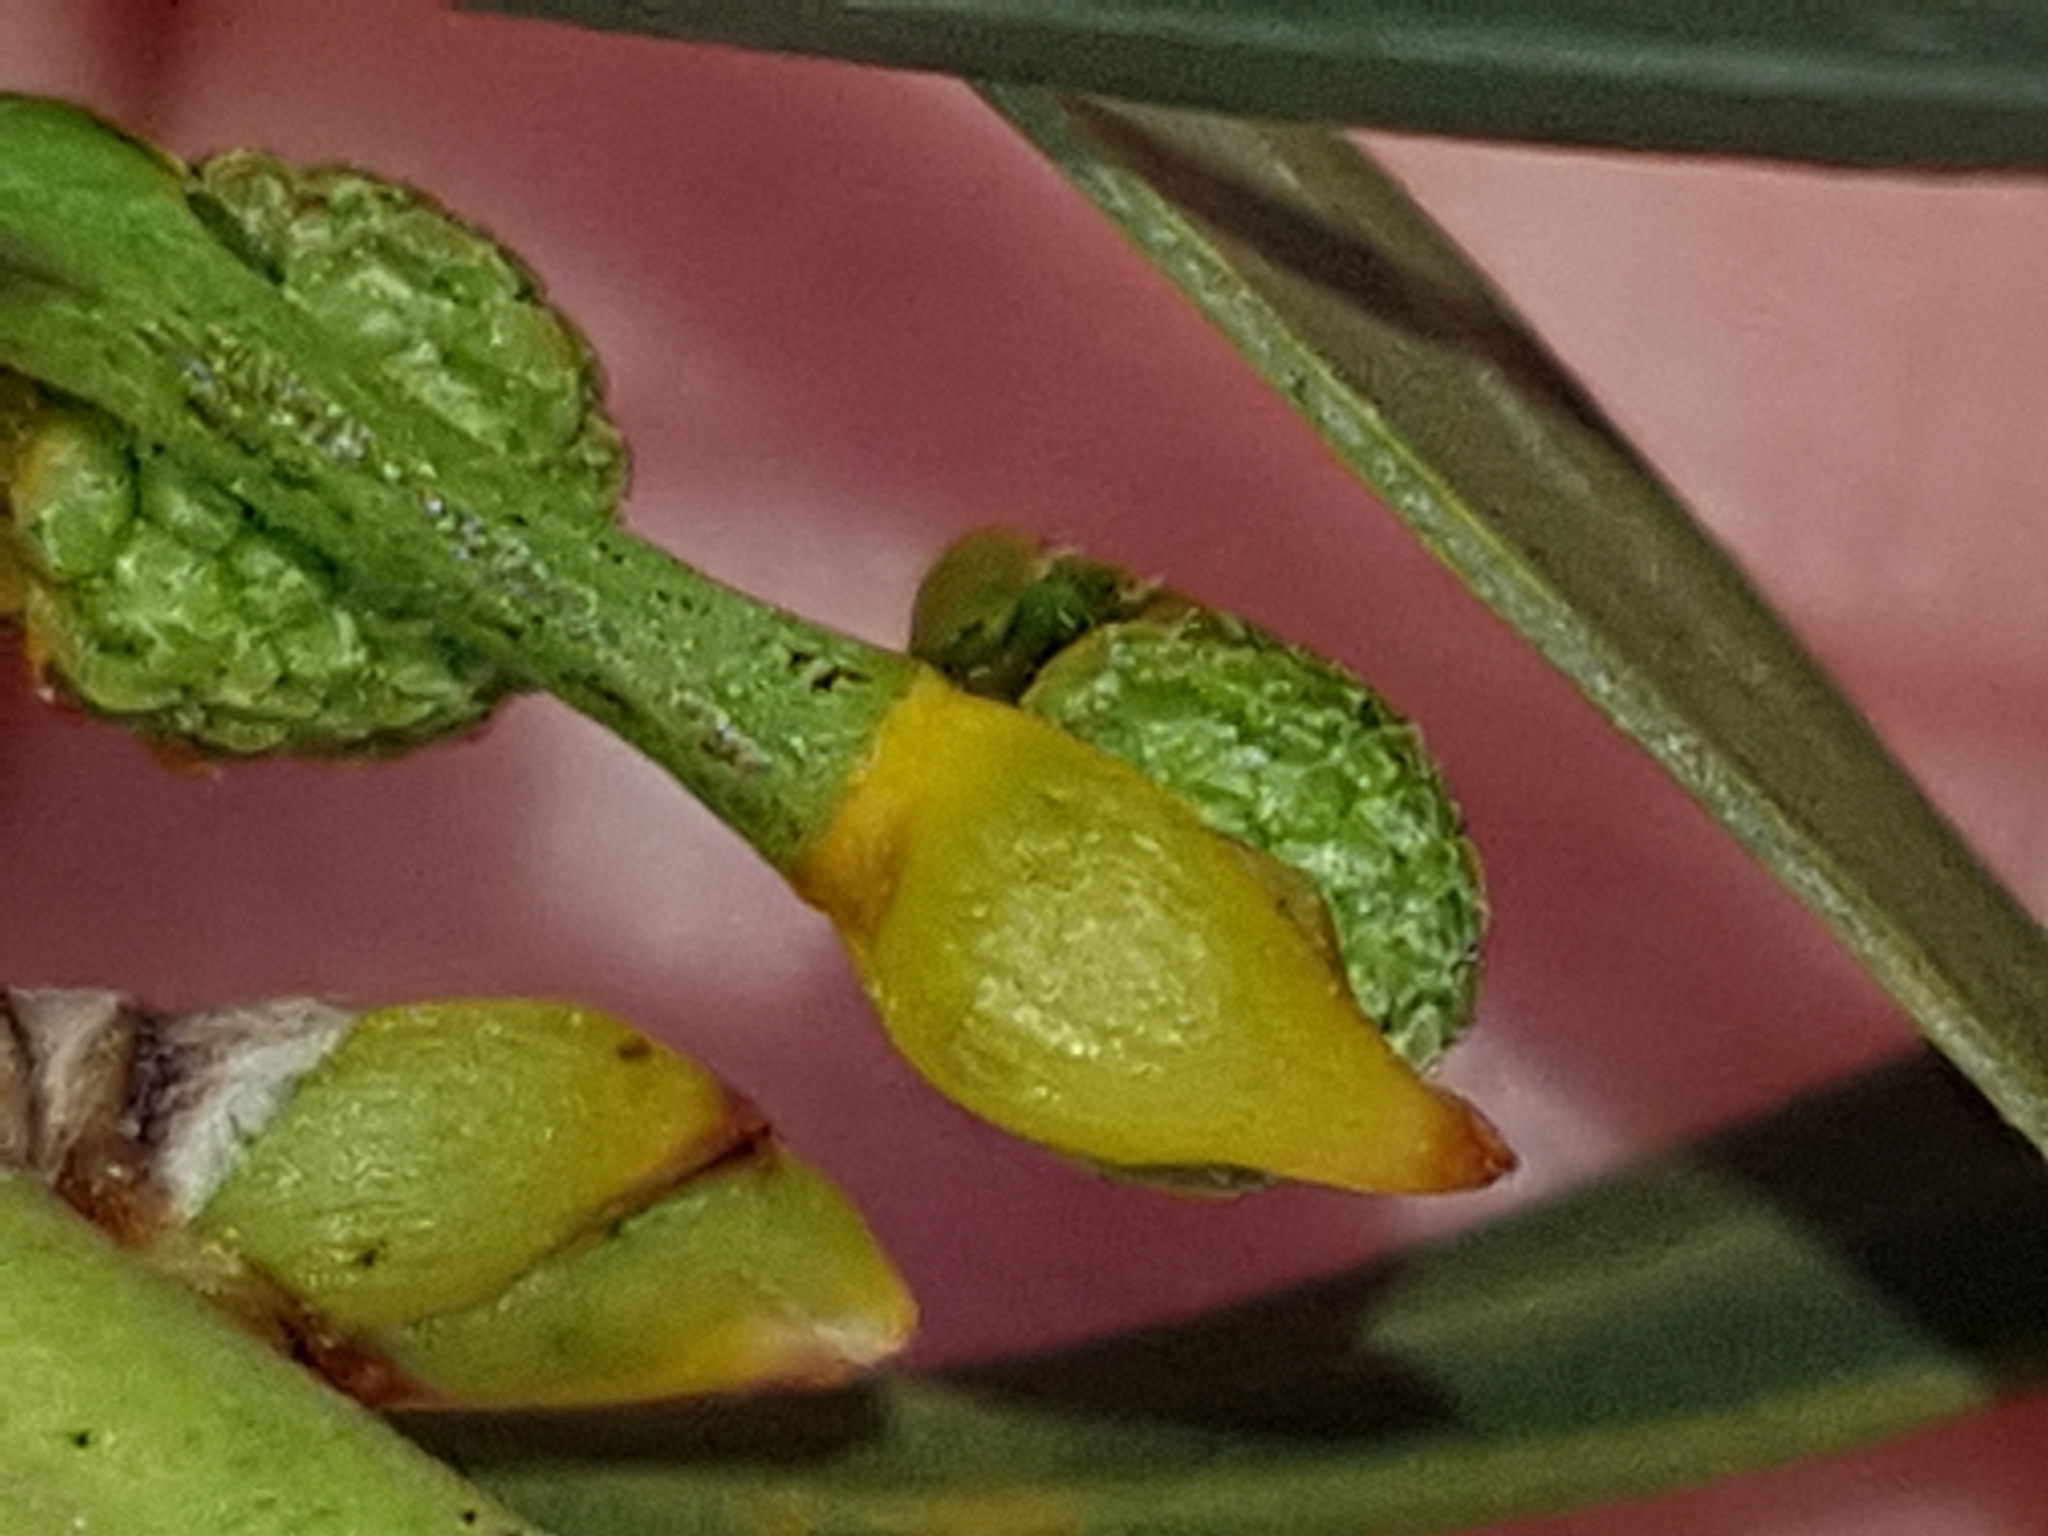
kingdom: Plantae
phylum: Tracheophyta
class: Magnoliopsida
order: Fabales
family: Fabaceae
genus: Acacia
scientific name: Acacia saligna
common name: Orange wattle
